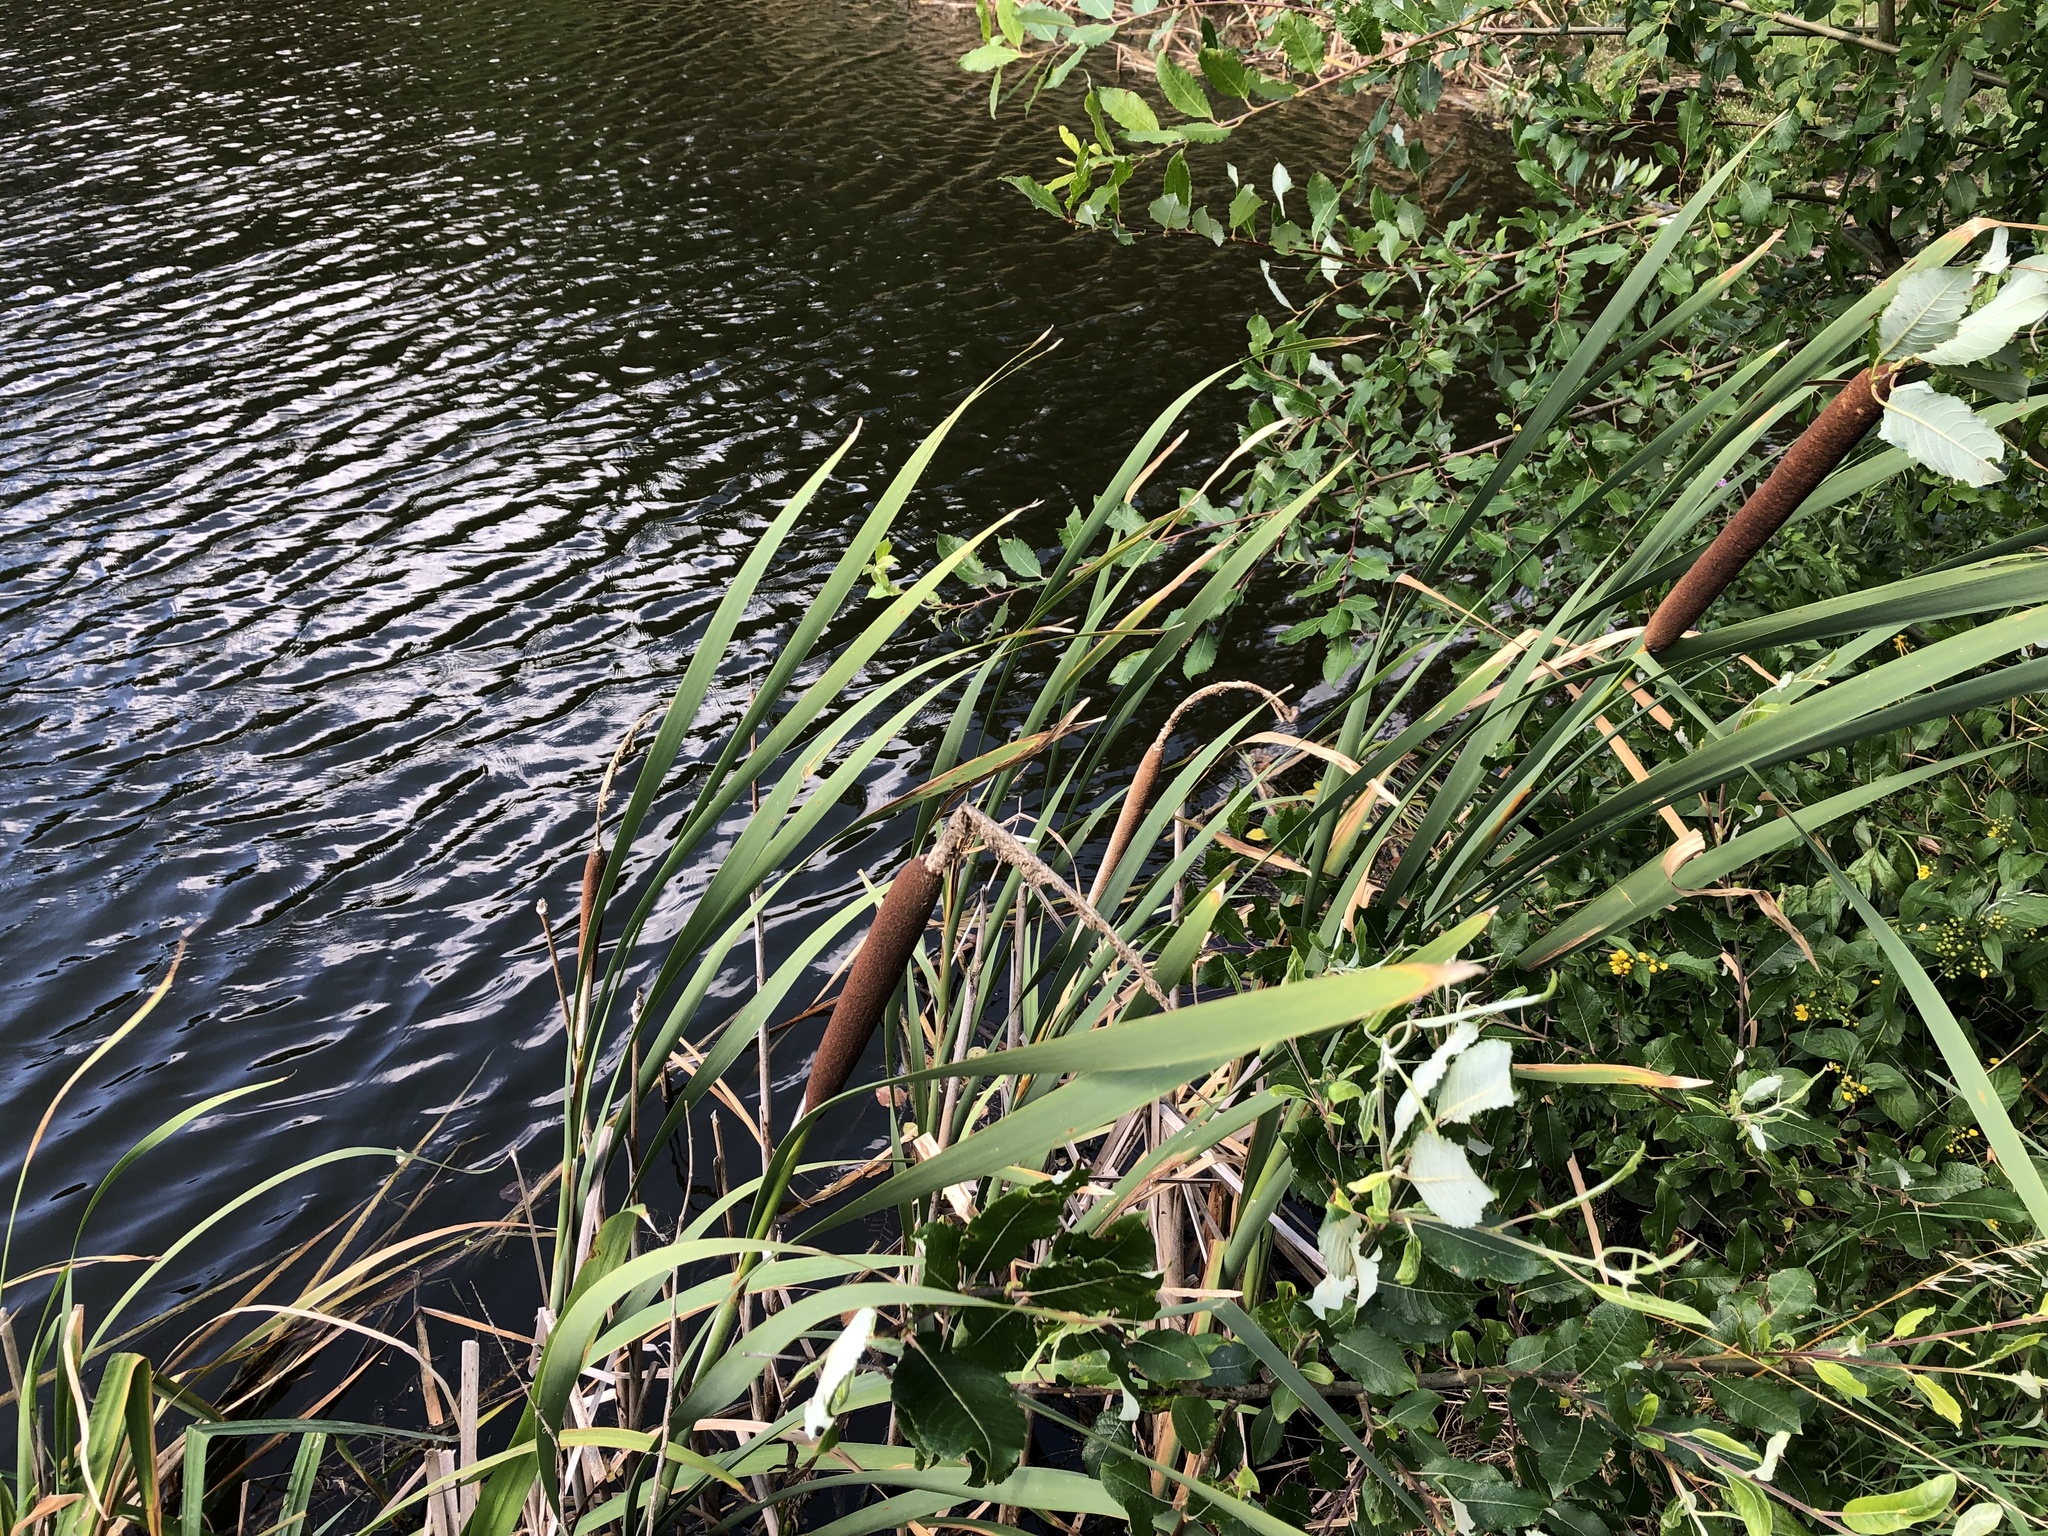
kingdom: Plantae
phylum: Tracheophyta
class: Liliopsida
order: Poales
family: Typhaceae
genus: Typha
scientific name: Typha latifolia
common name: Broadleaf cattail
